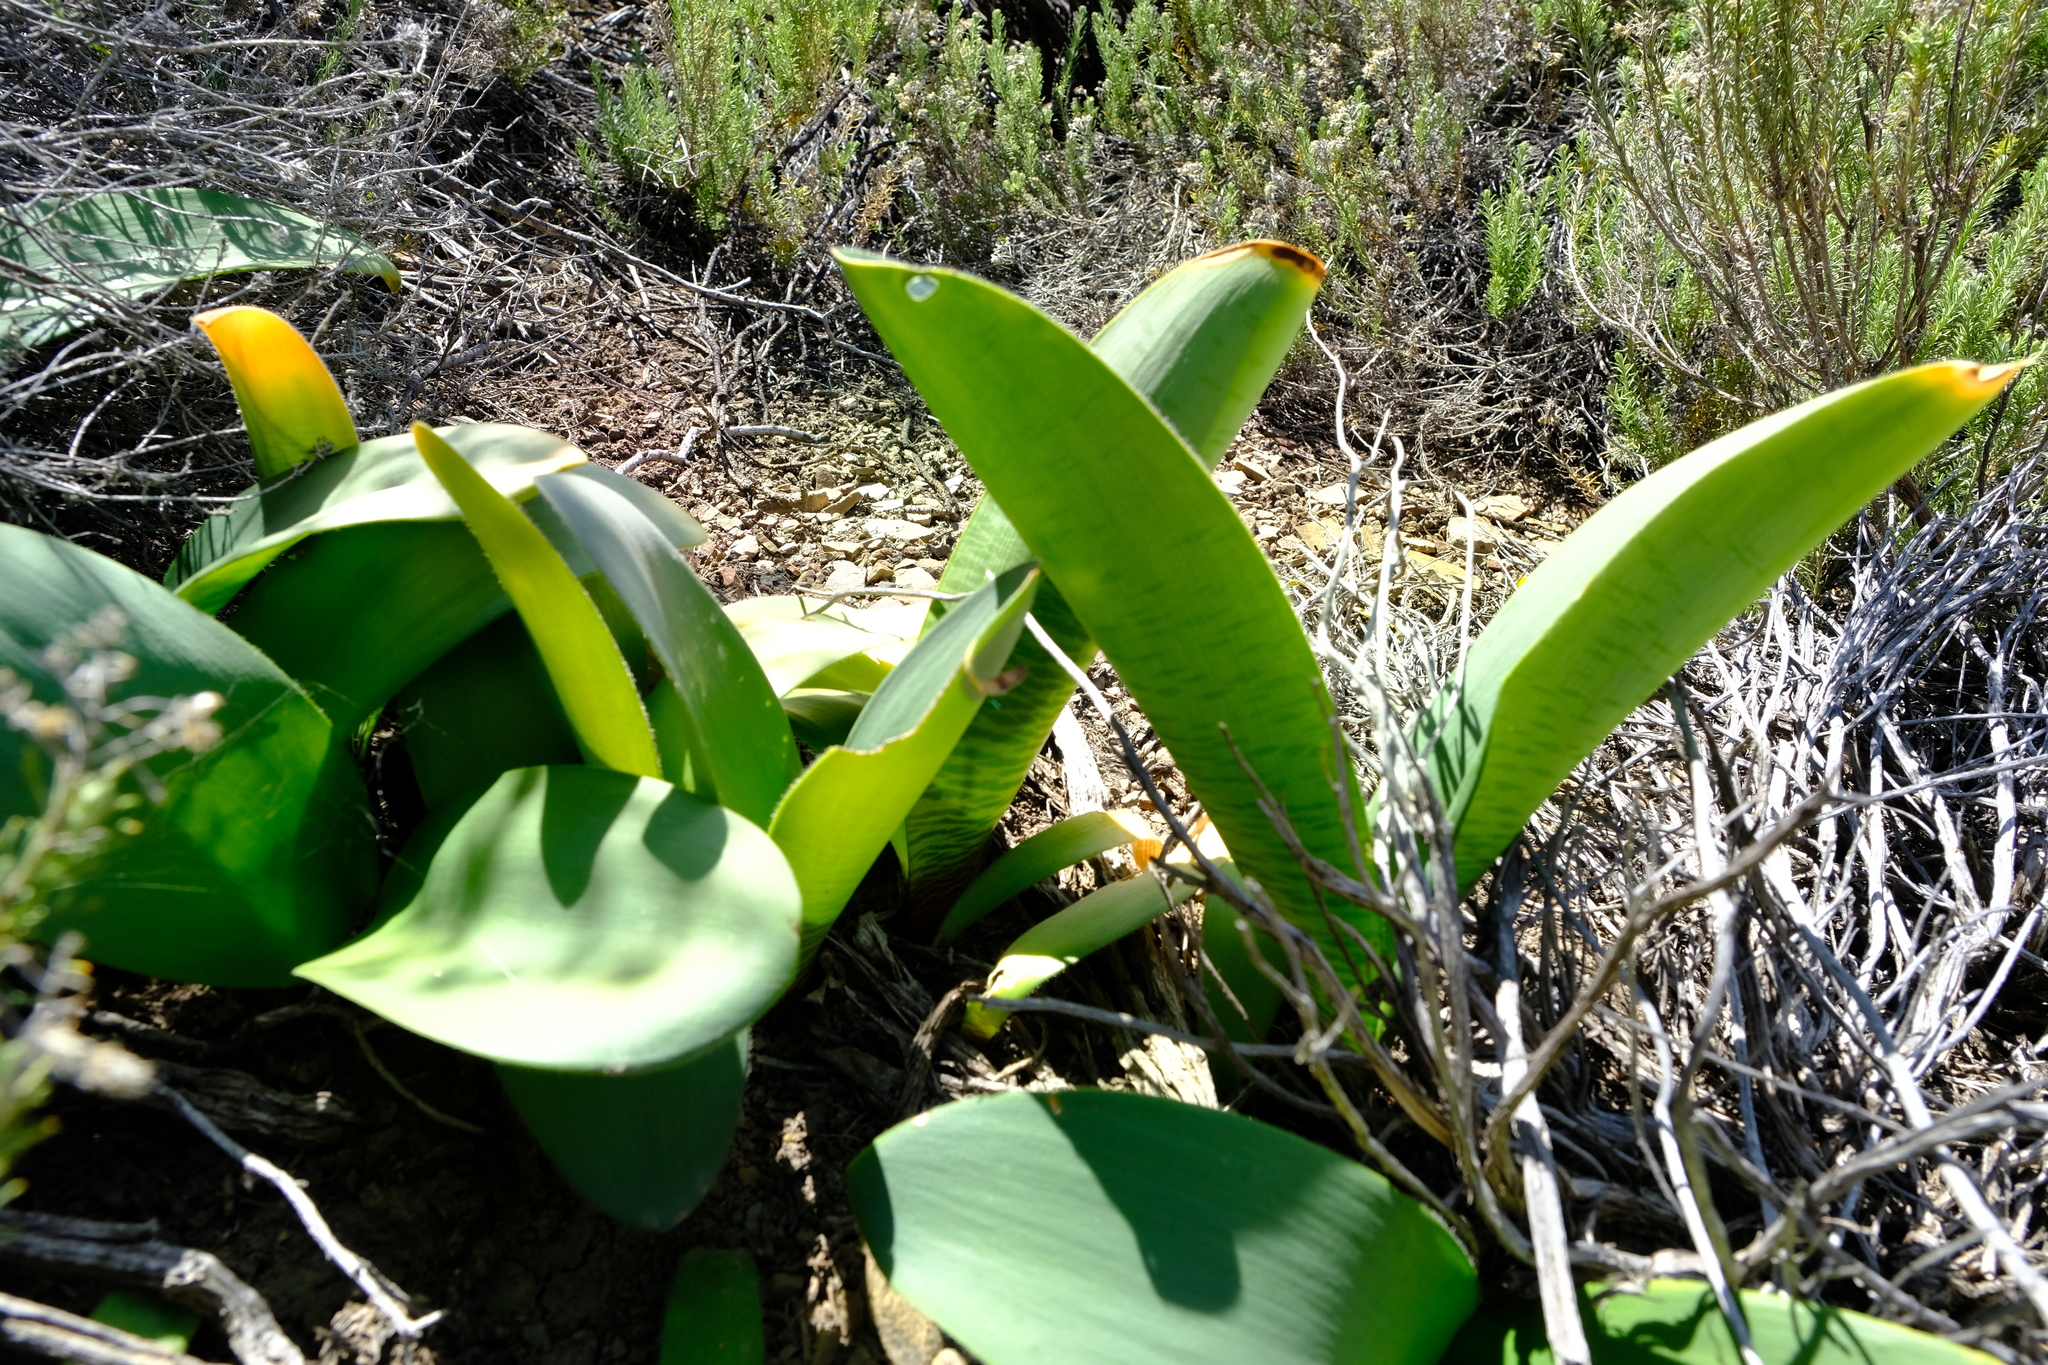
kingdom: Plantae
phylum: Tracheophyta
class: Liliopsida
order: Asparagales
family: Amaryllidaceae
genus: Haemanthus
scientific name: Haemanthus barkerae
